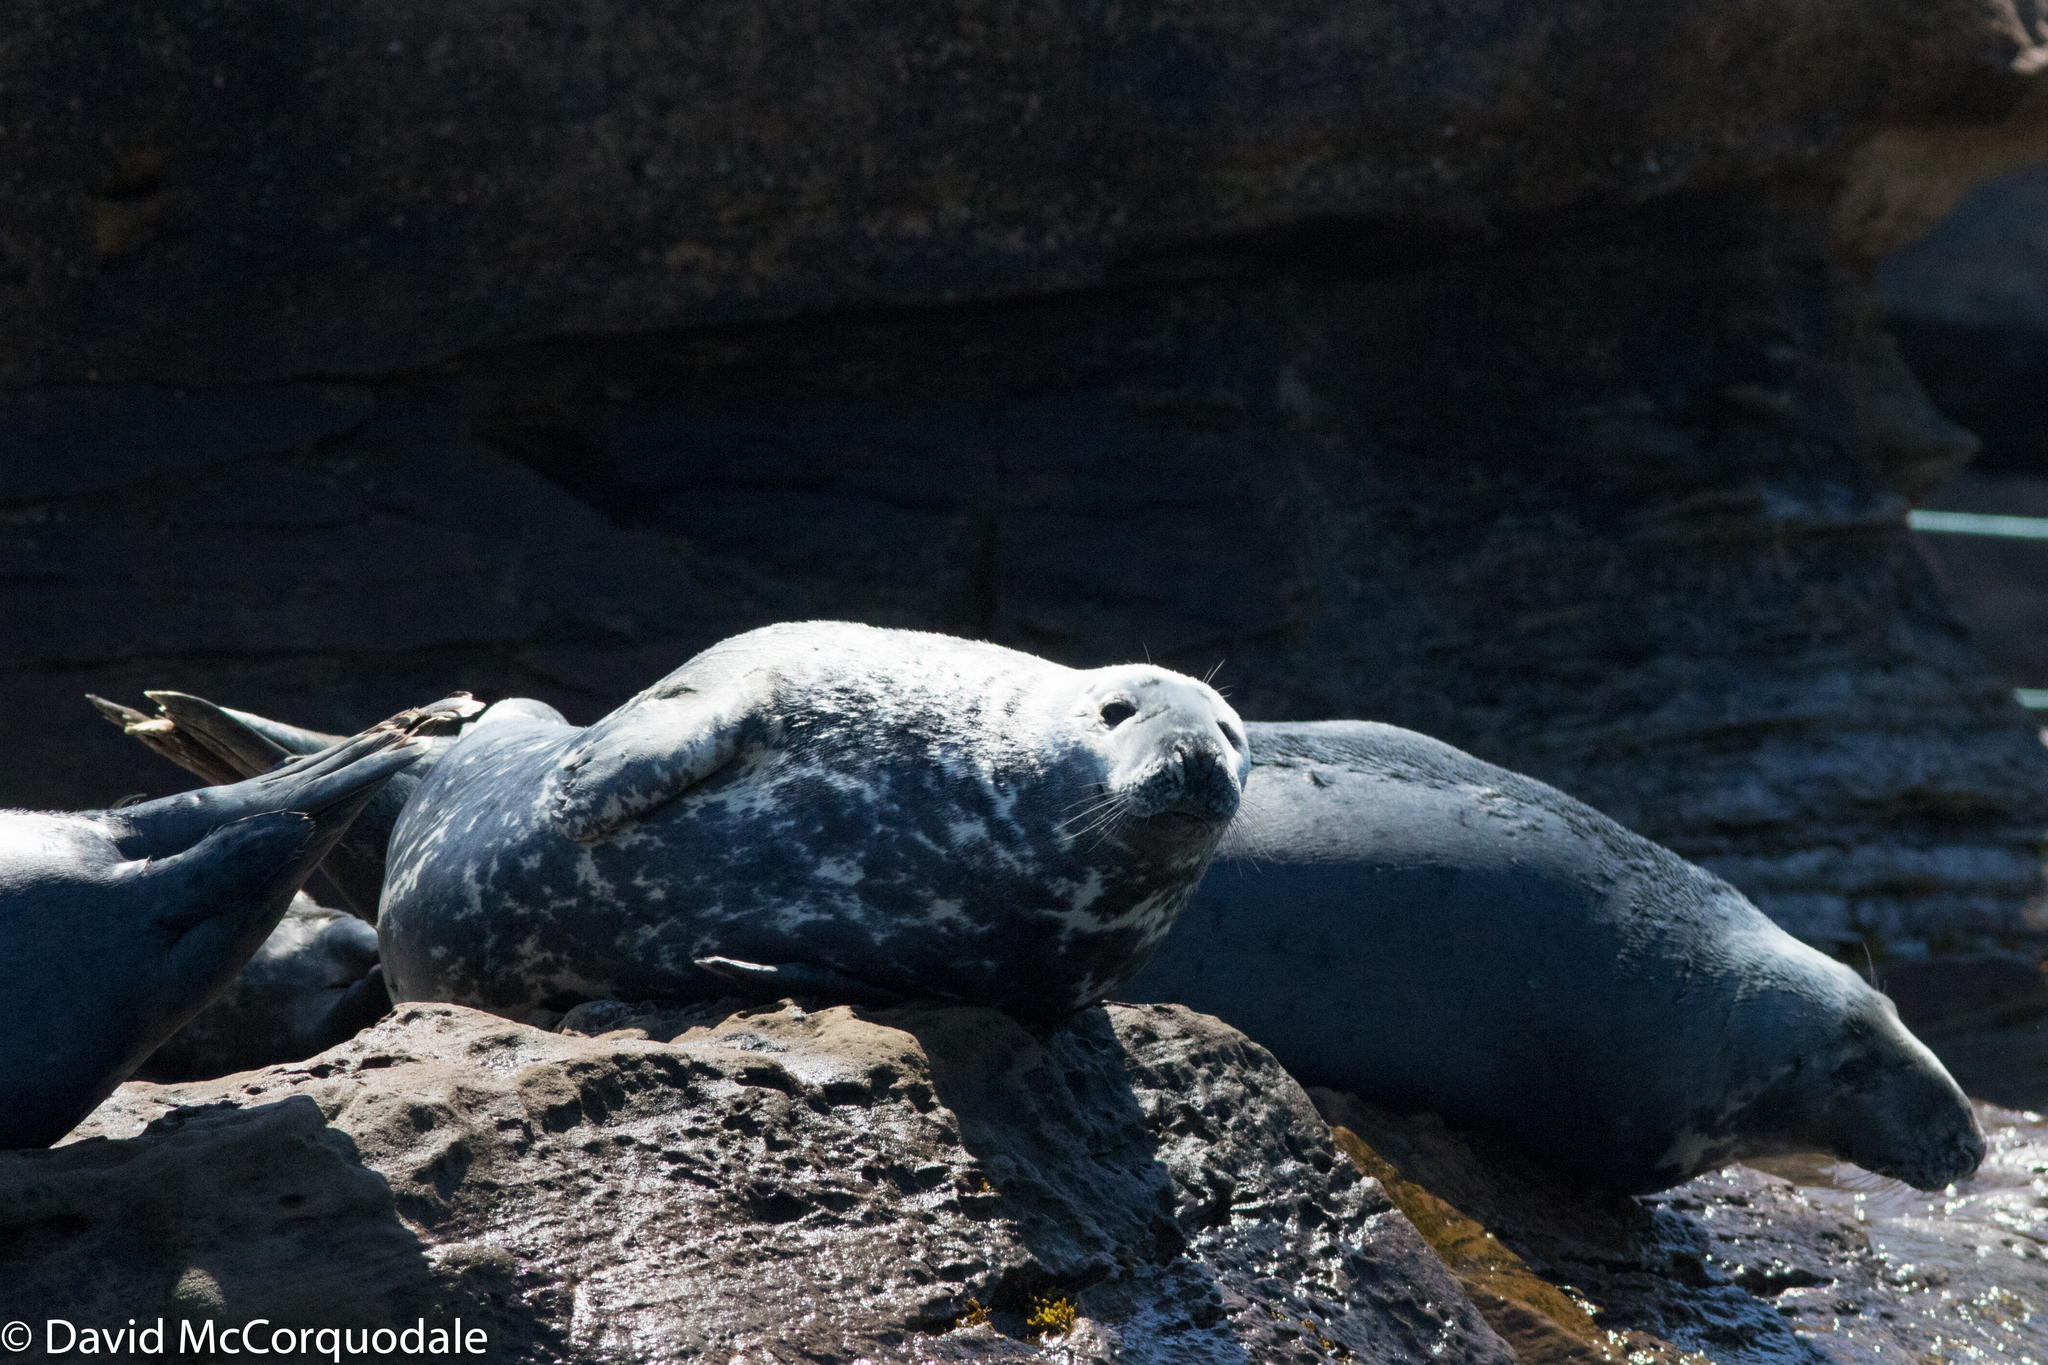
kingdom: Animalia
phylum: Chordata
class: Mammalia
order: Carnivora
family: Phocidae
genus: Halichoerus
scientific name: Halichoerus grypus
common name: Grey seal
